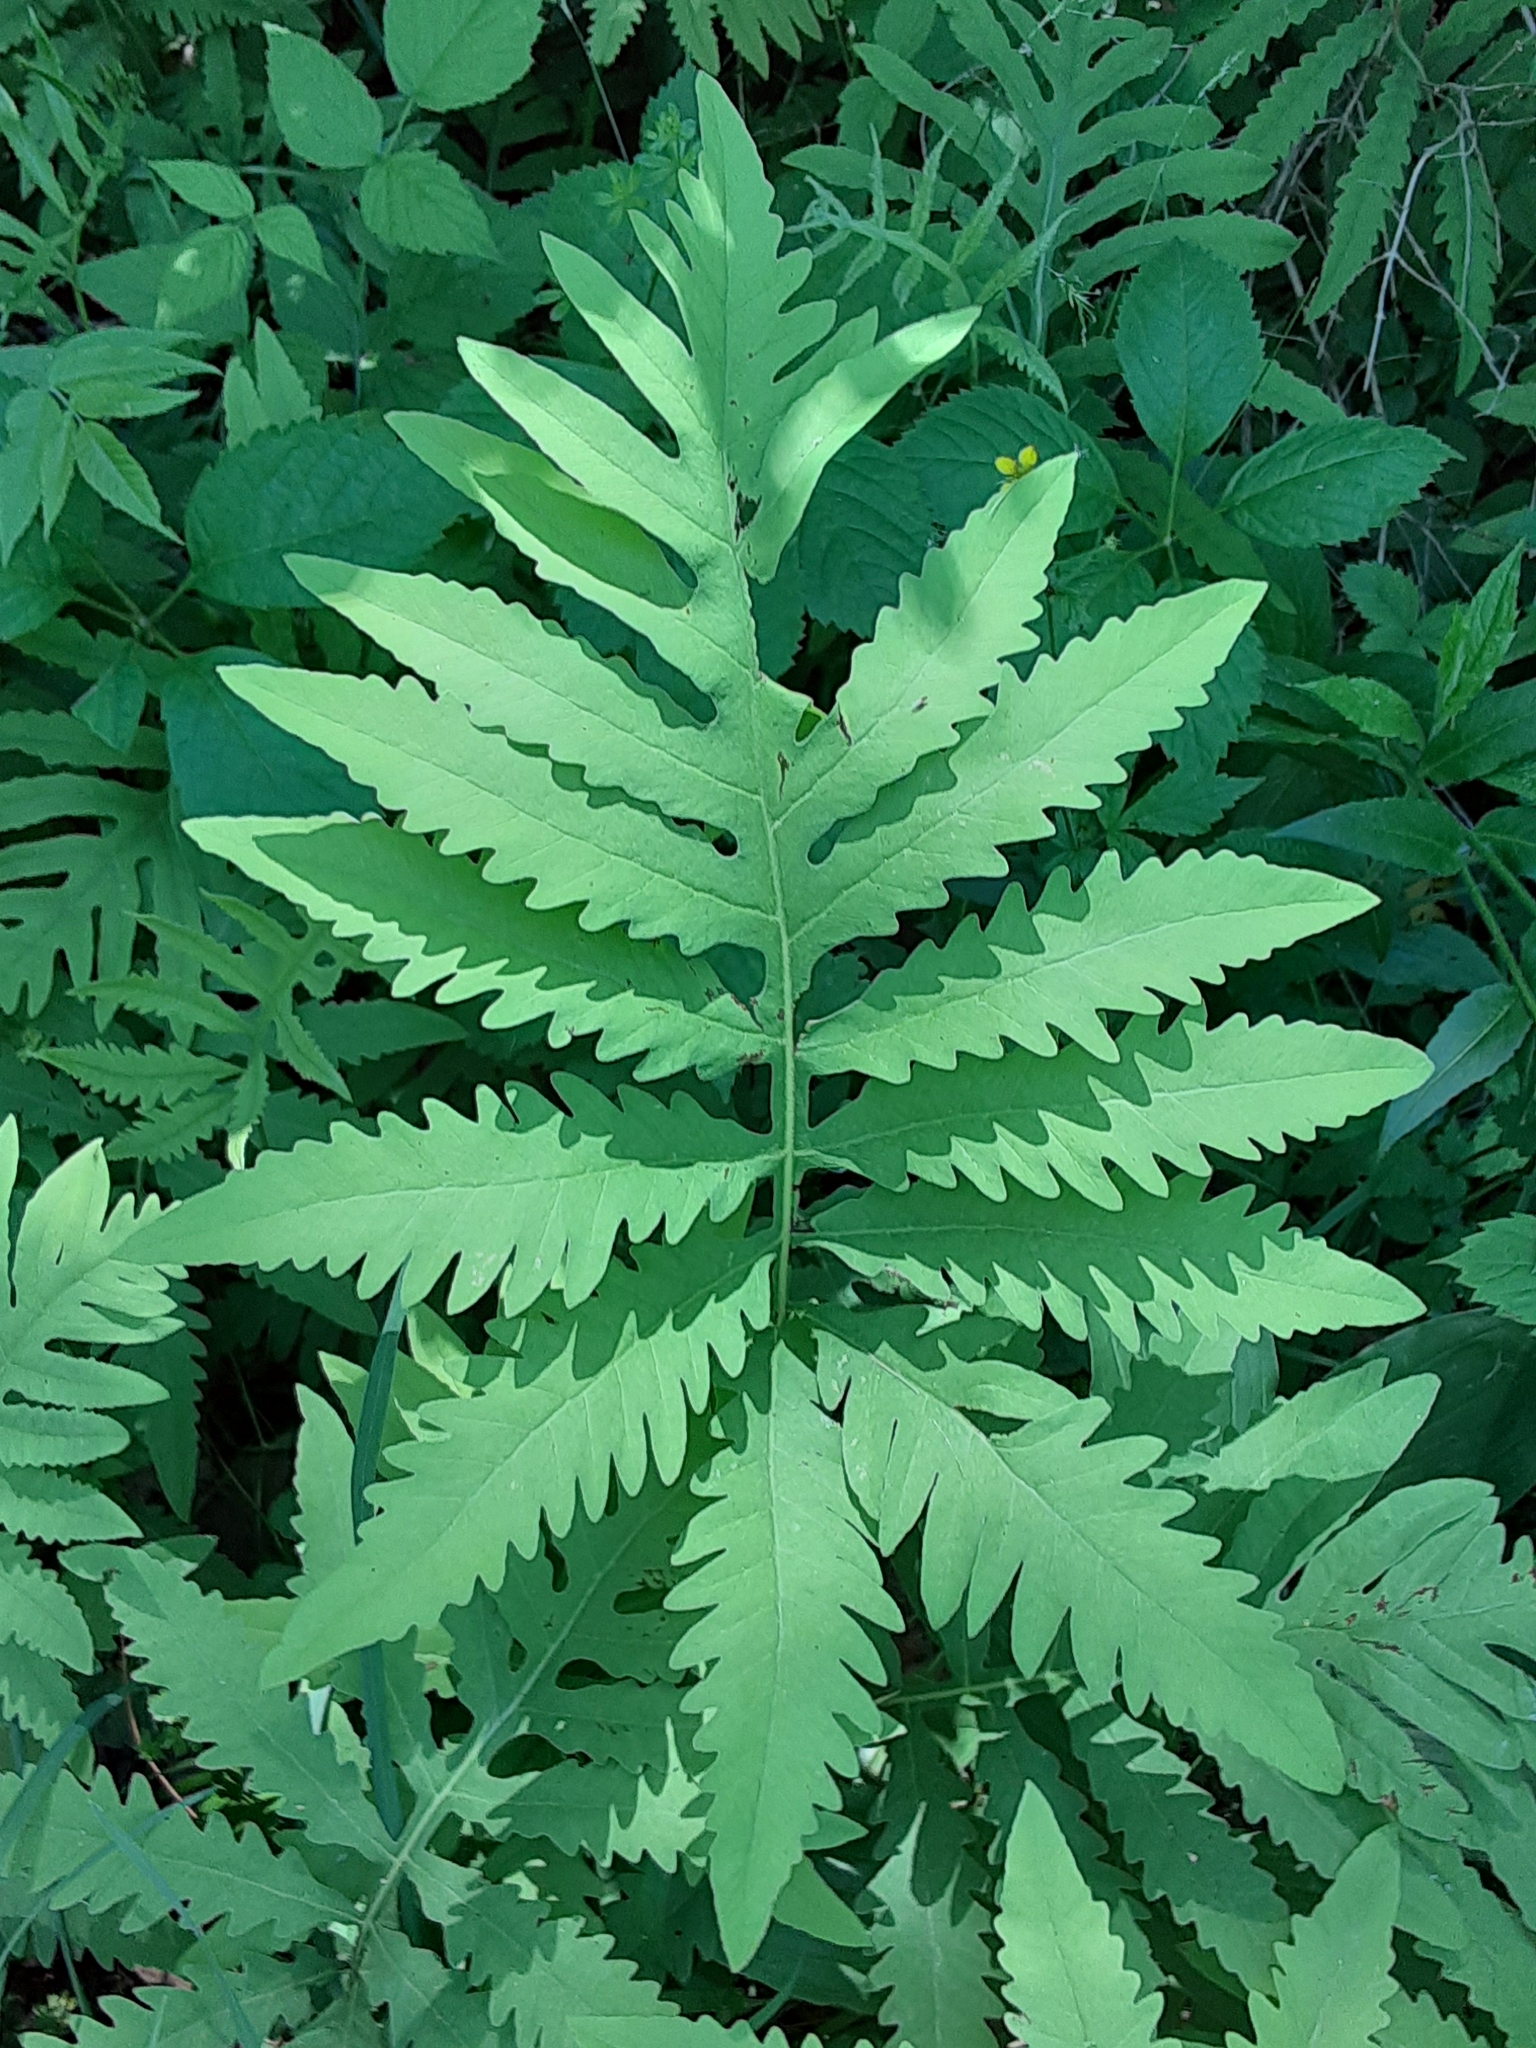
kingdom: Plantae
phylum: Tracheophyta
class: Polypodiopsida
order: Polypodiales
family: Onocleaceae
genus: Onoclea
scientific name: Onoclea sensibilis
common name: Sensitive fern
